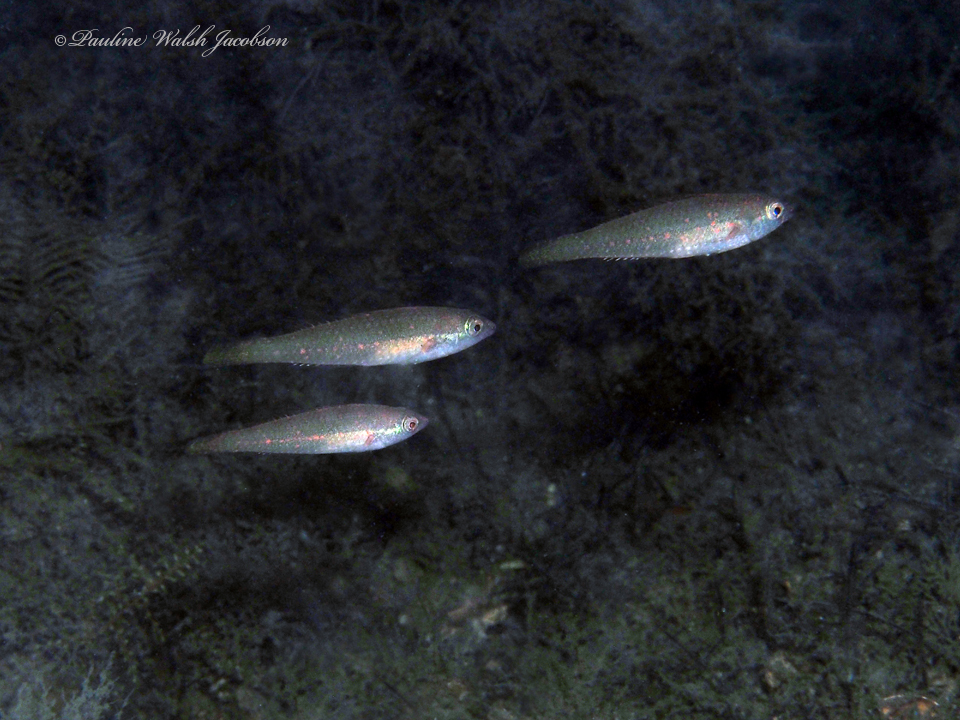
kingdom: Animalia
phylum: Chordata
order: Perciformes
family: Scaridae
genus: Cryptotomus
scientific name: Cryptotomus roseus
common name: Bluelip parrotfish
